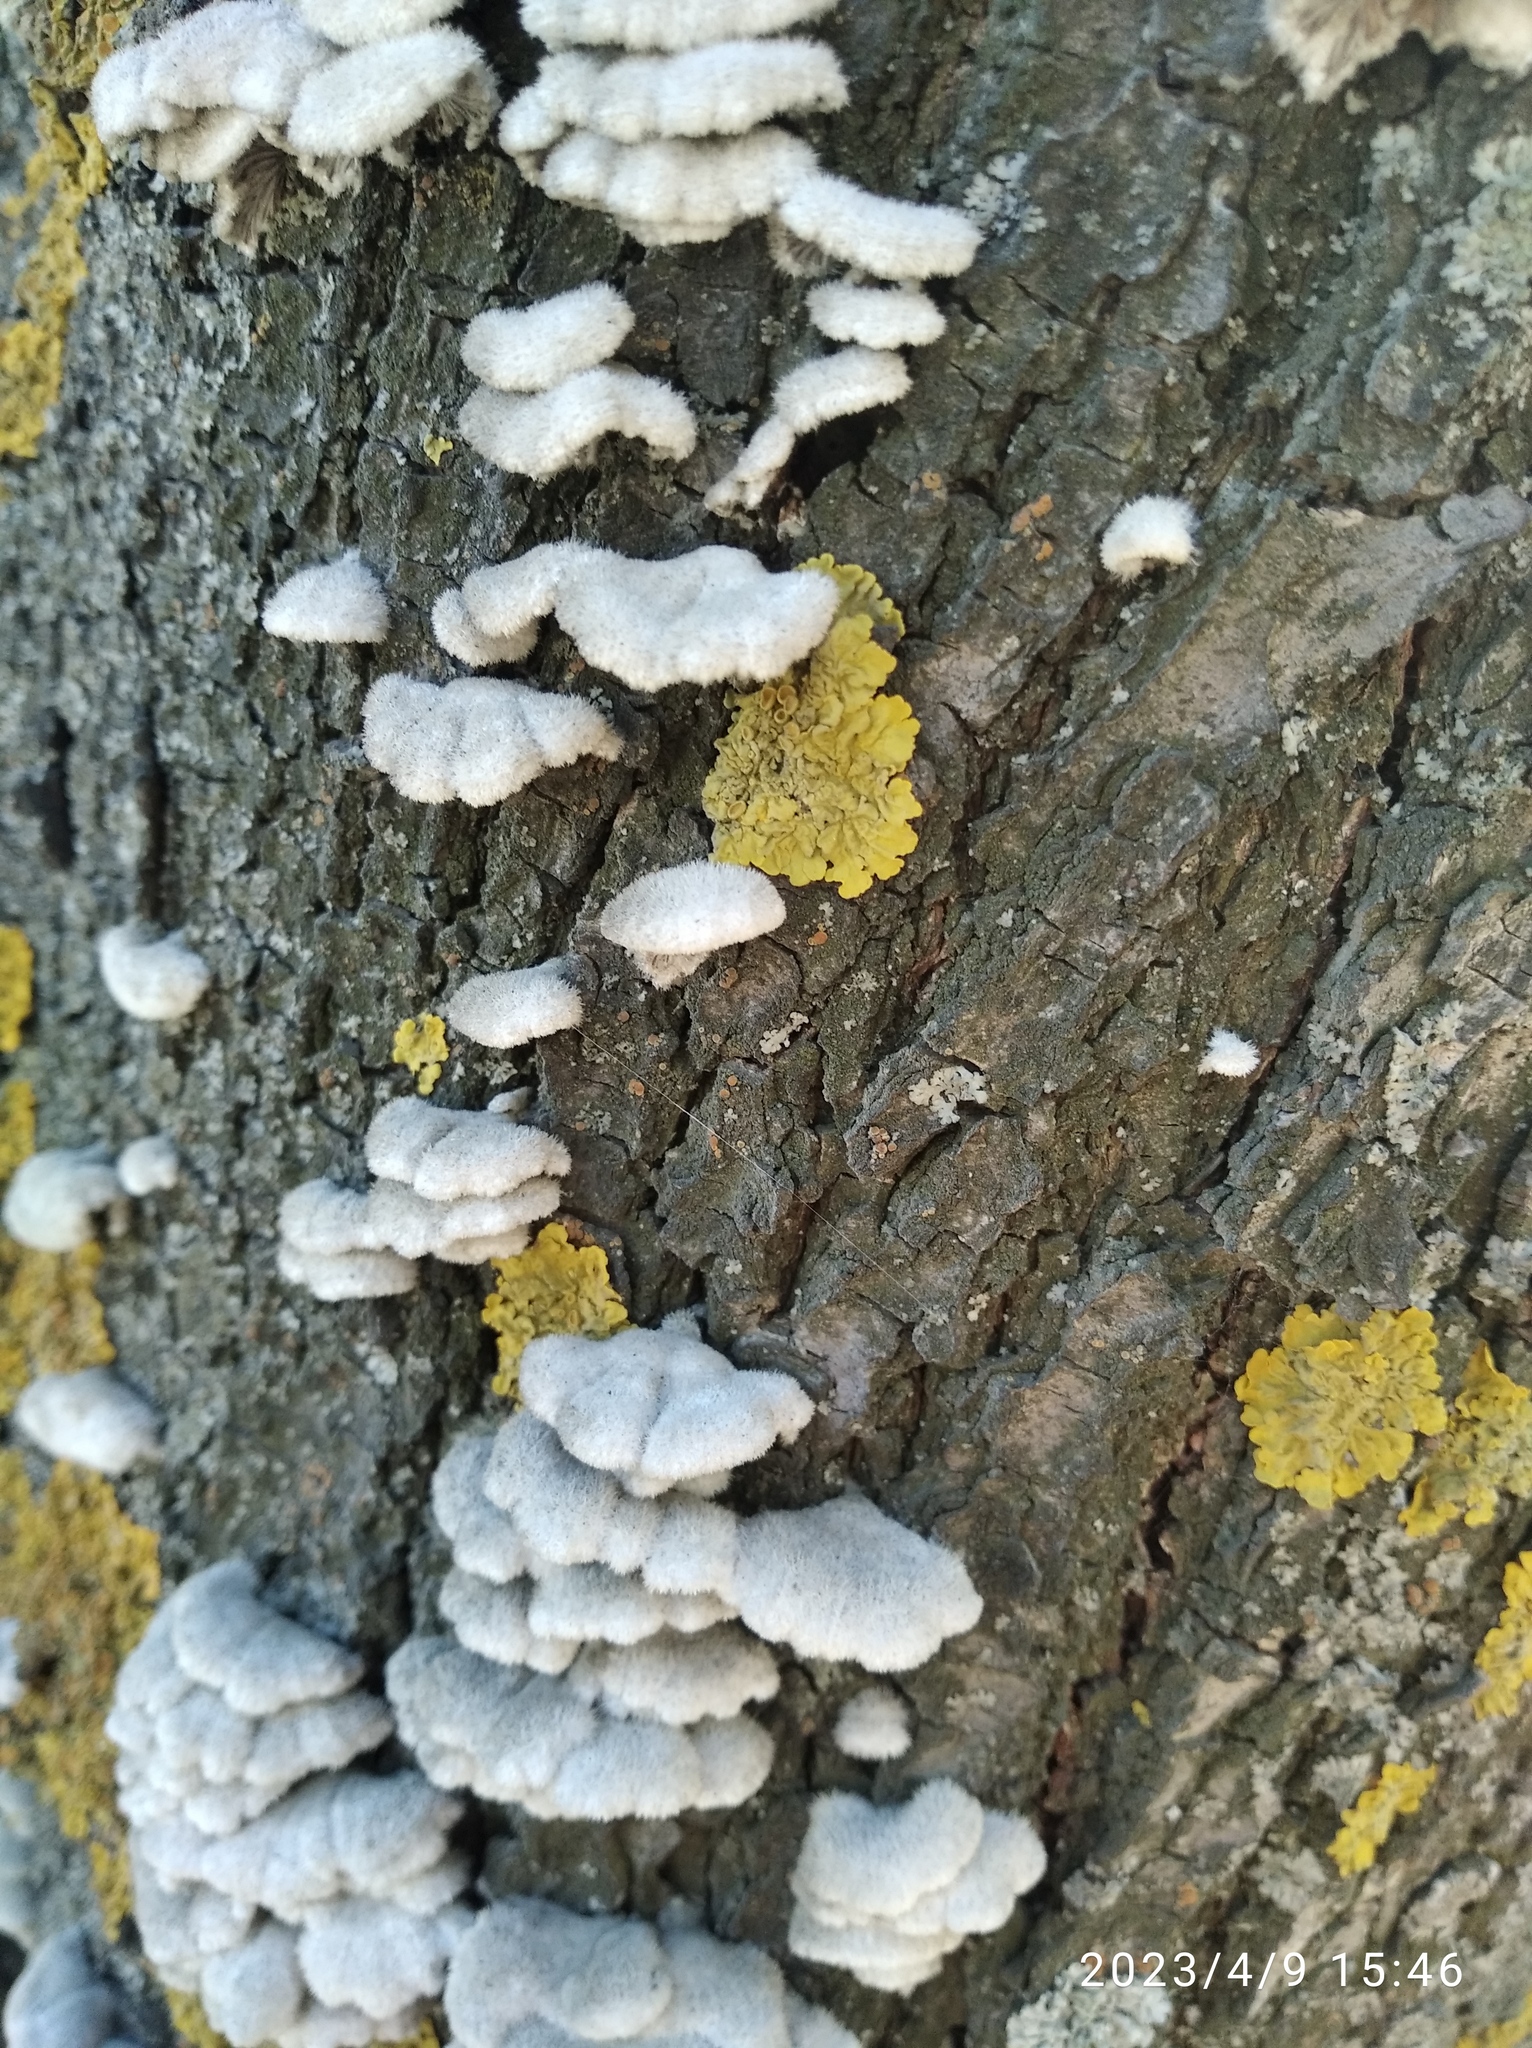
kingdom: Fungi
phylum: Basidiomycota
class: Agaricomycetes
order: Agaricales
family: Schizophyllaceae
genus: Schizophyllum
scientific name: Schizophyllum commune
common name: Common porecrust
